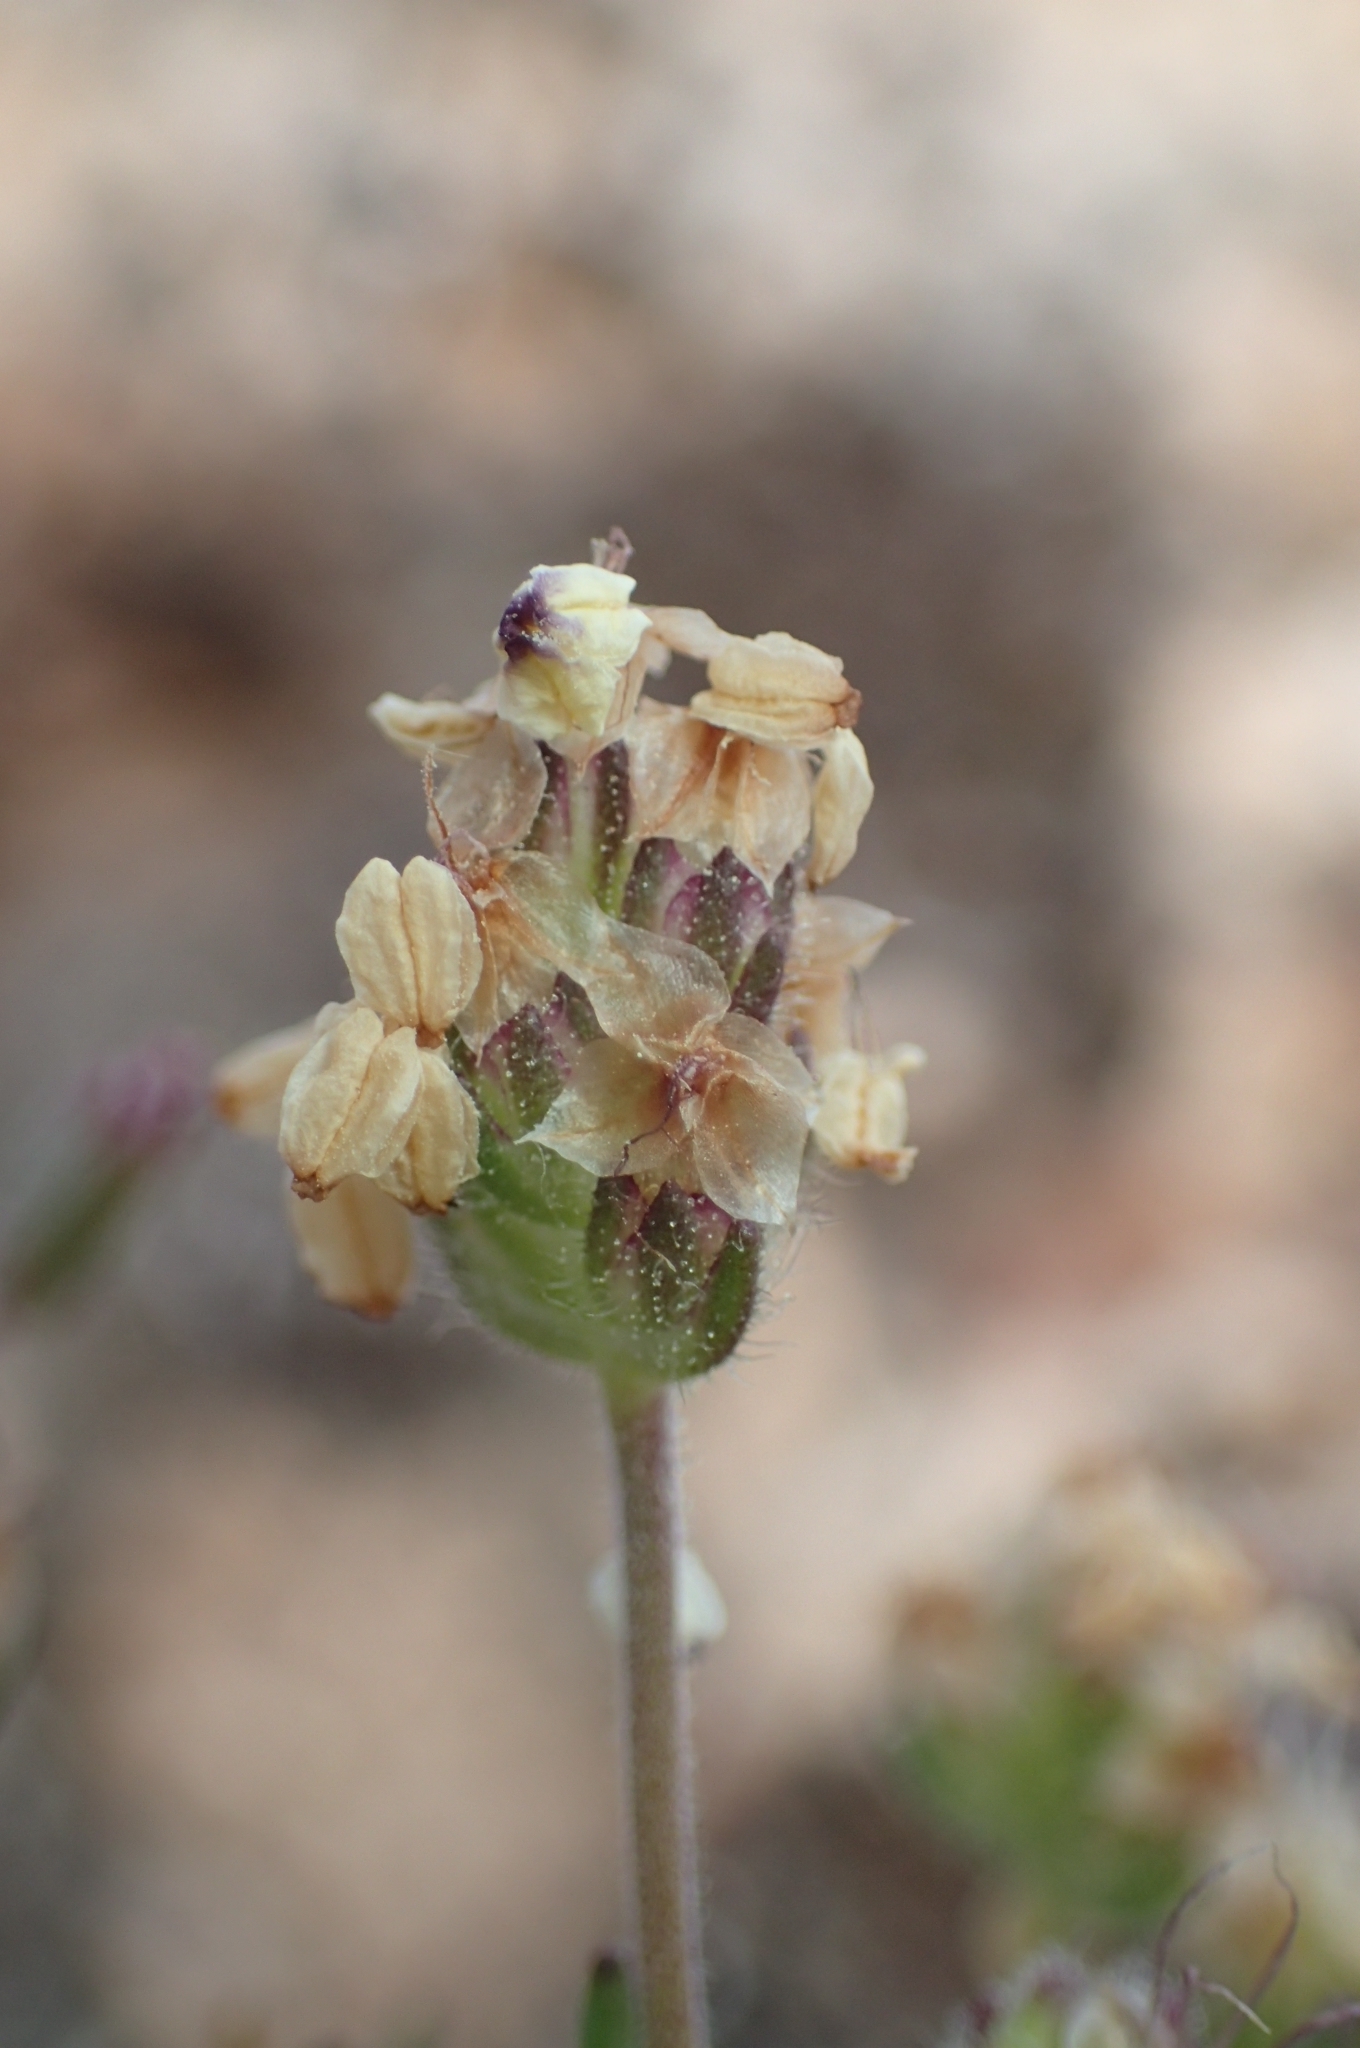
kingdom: Plantae
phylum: Tracheophyta
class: Magnoliopsida
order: Lamiales
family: Plantaginaceae
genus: Plantago
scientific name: Plantago afra
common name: Glandular plantain
